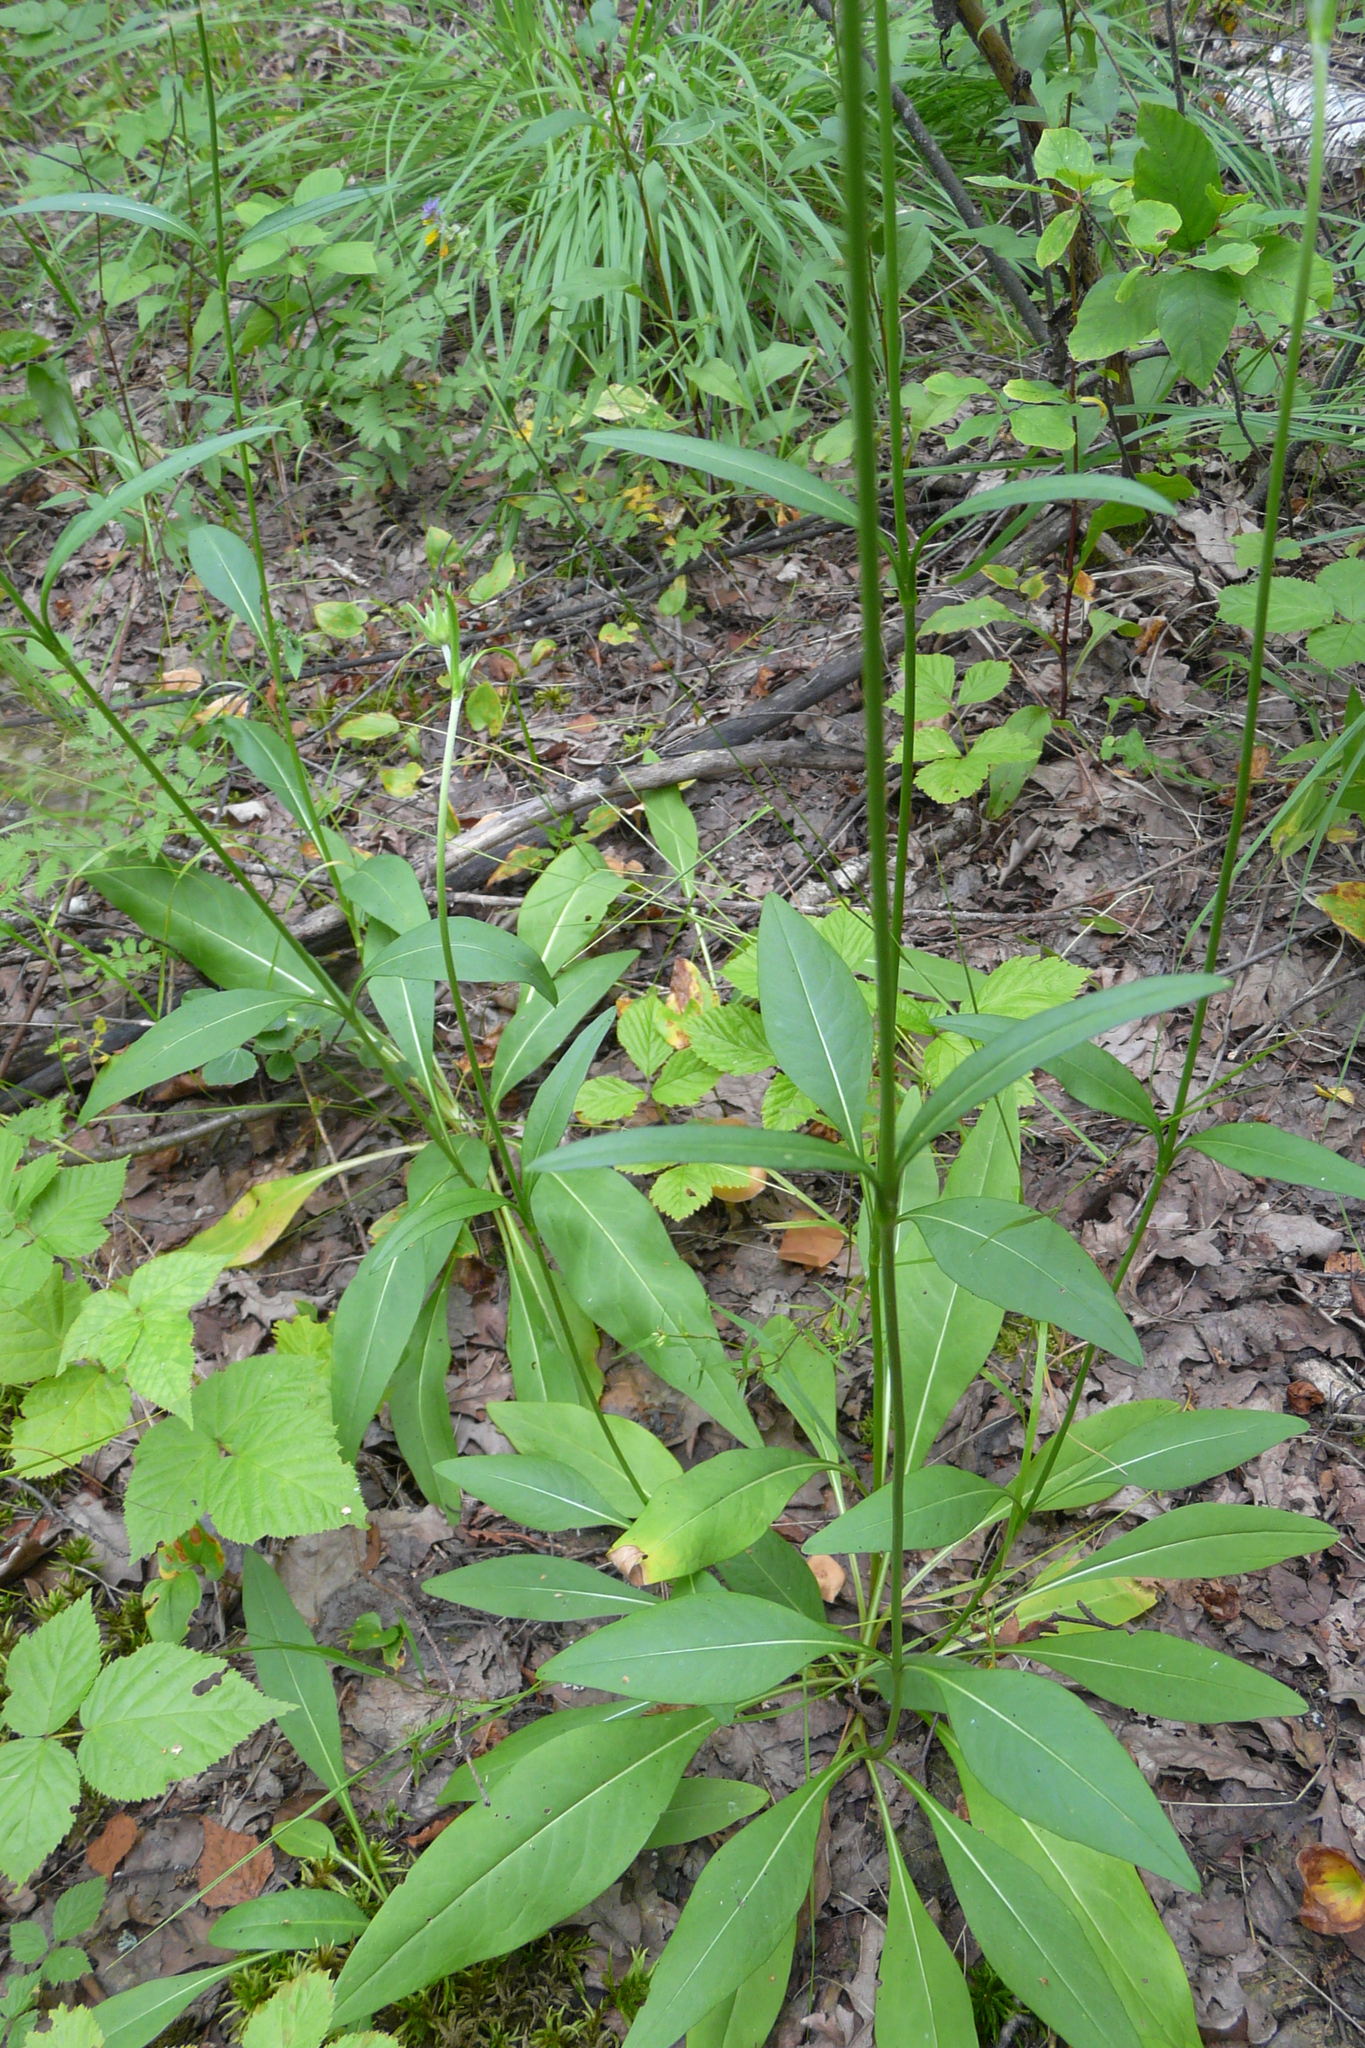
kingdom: Plantae
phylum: Tracheophyta
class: Magnoliopsida
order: Dipsacales
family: Caprifoliaceae
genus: Succisa
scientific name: Succisa pratensis
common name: Devil's-bit
